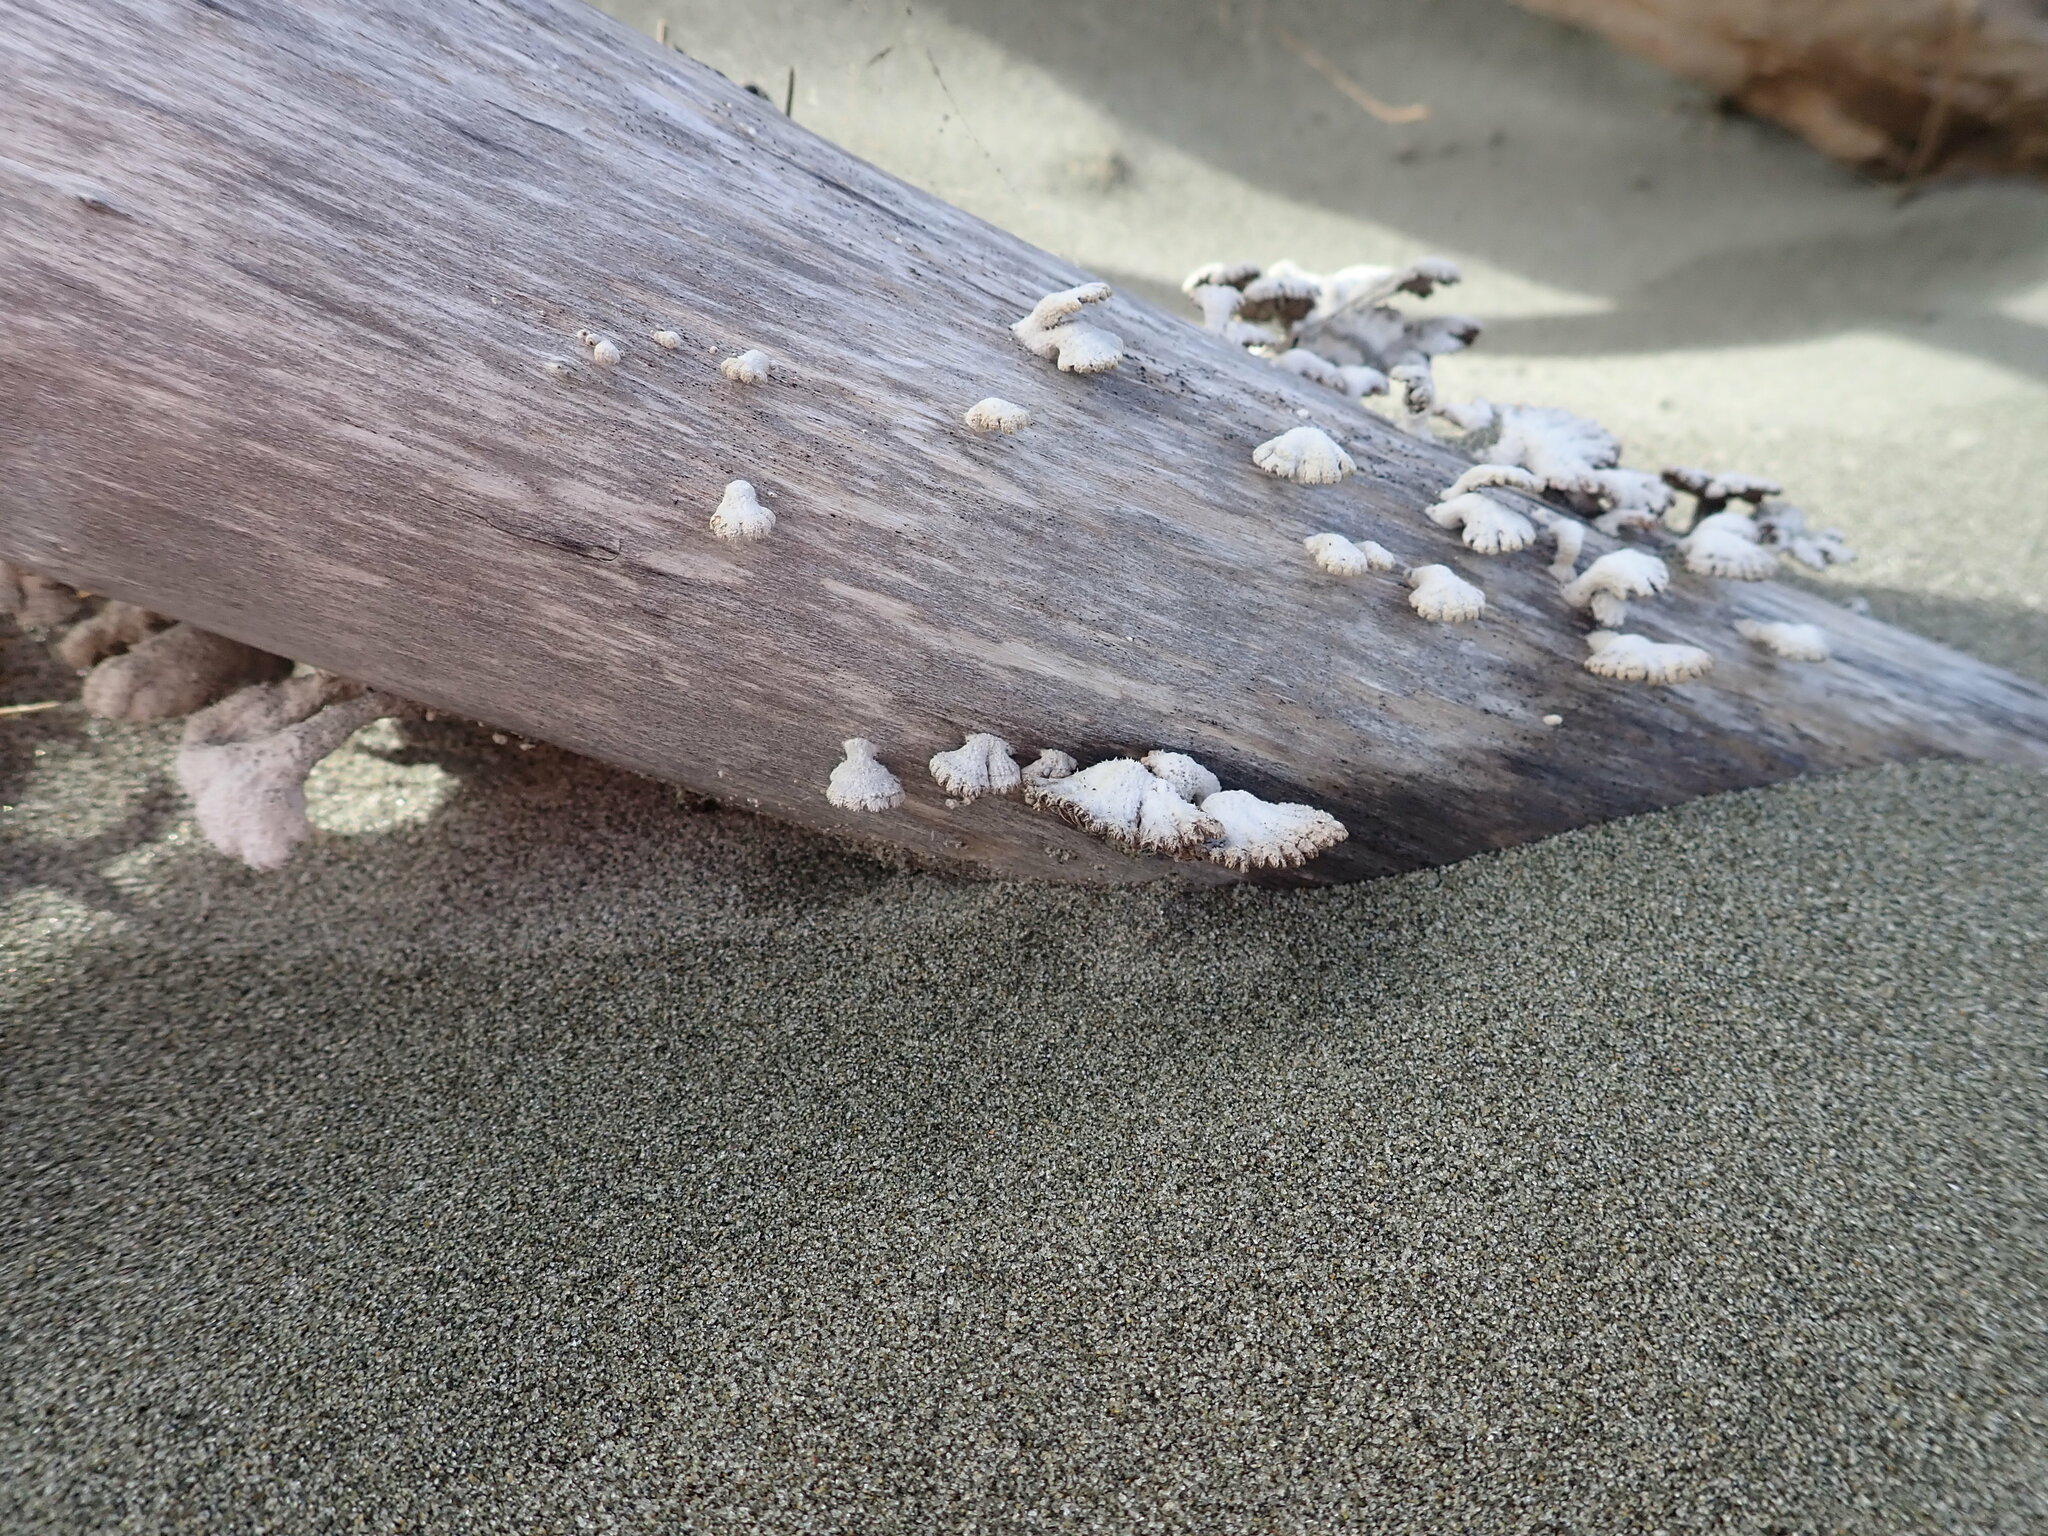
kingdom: Fungi
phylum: Basidiomycota
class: Agaricomycetes
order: Agaricales
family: Schizophyllaceae
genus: Schizophyllum
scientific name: Schizophyllum commune
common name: Common porecrust
